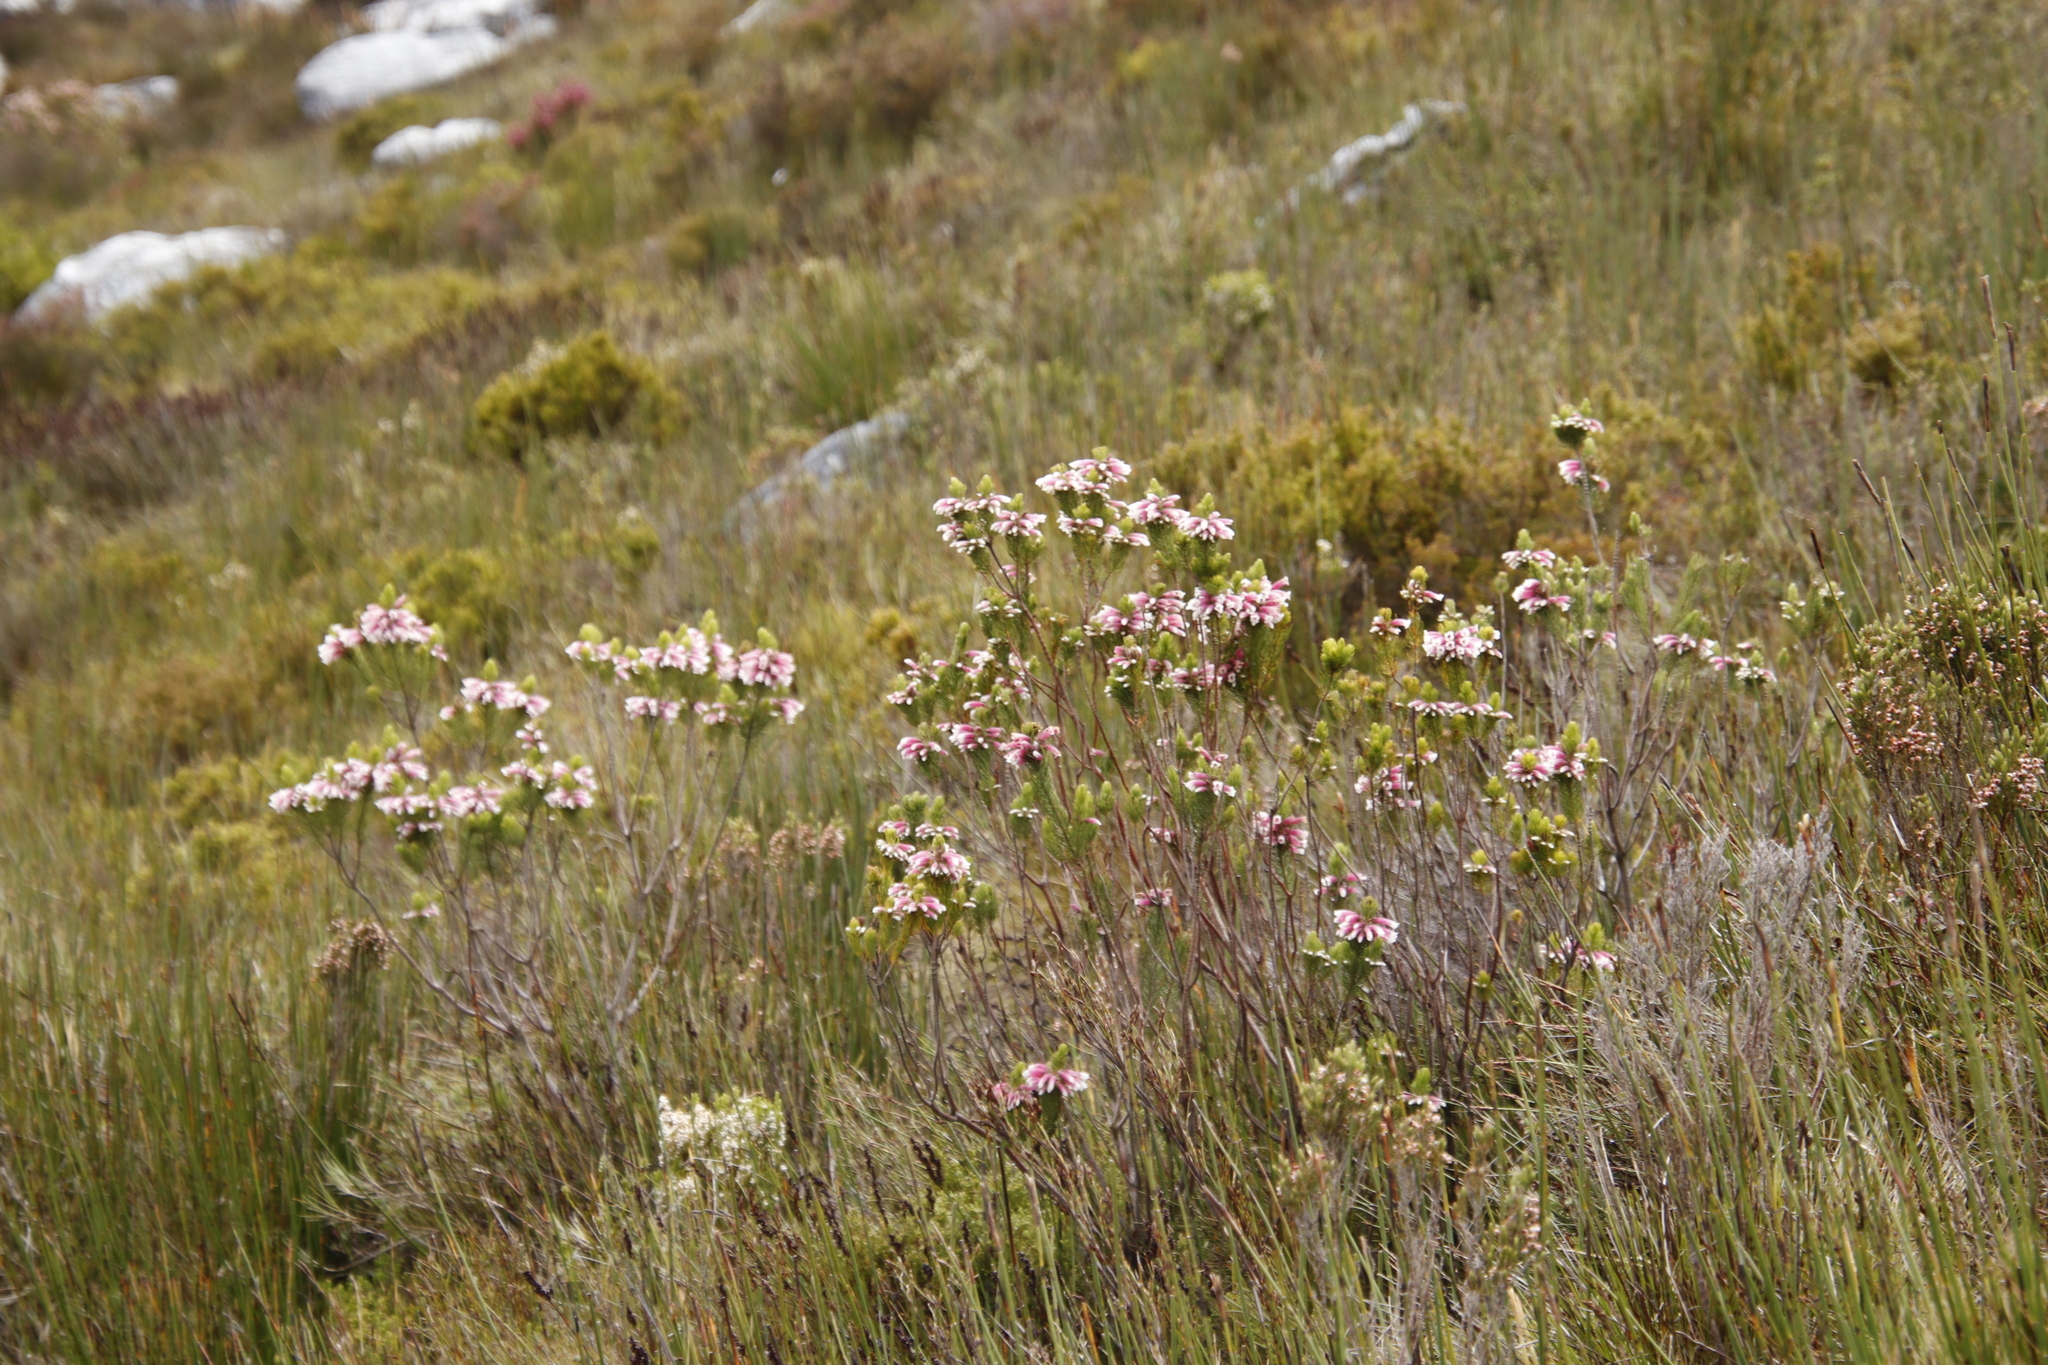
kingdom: Plantae
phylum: Tracheophyta
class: Magnoliopsida
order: Ericales
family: Ericaceae
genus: Erica
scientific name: Erica viscaria
